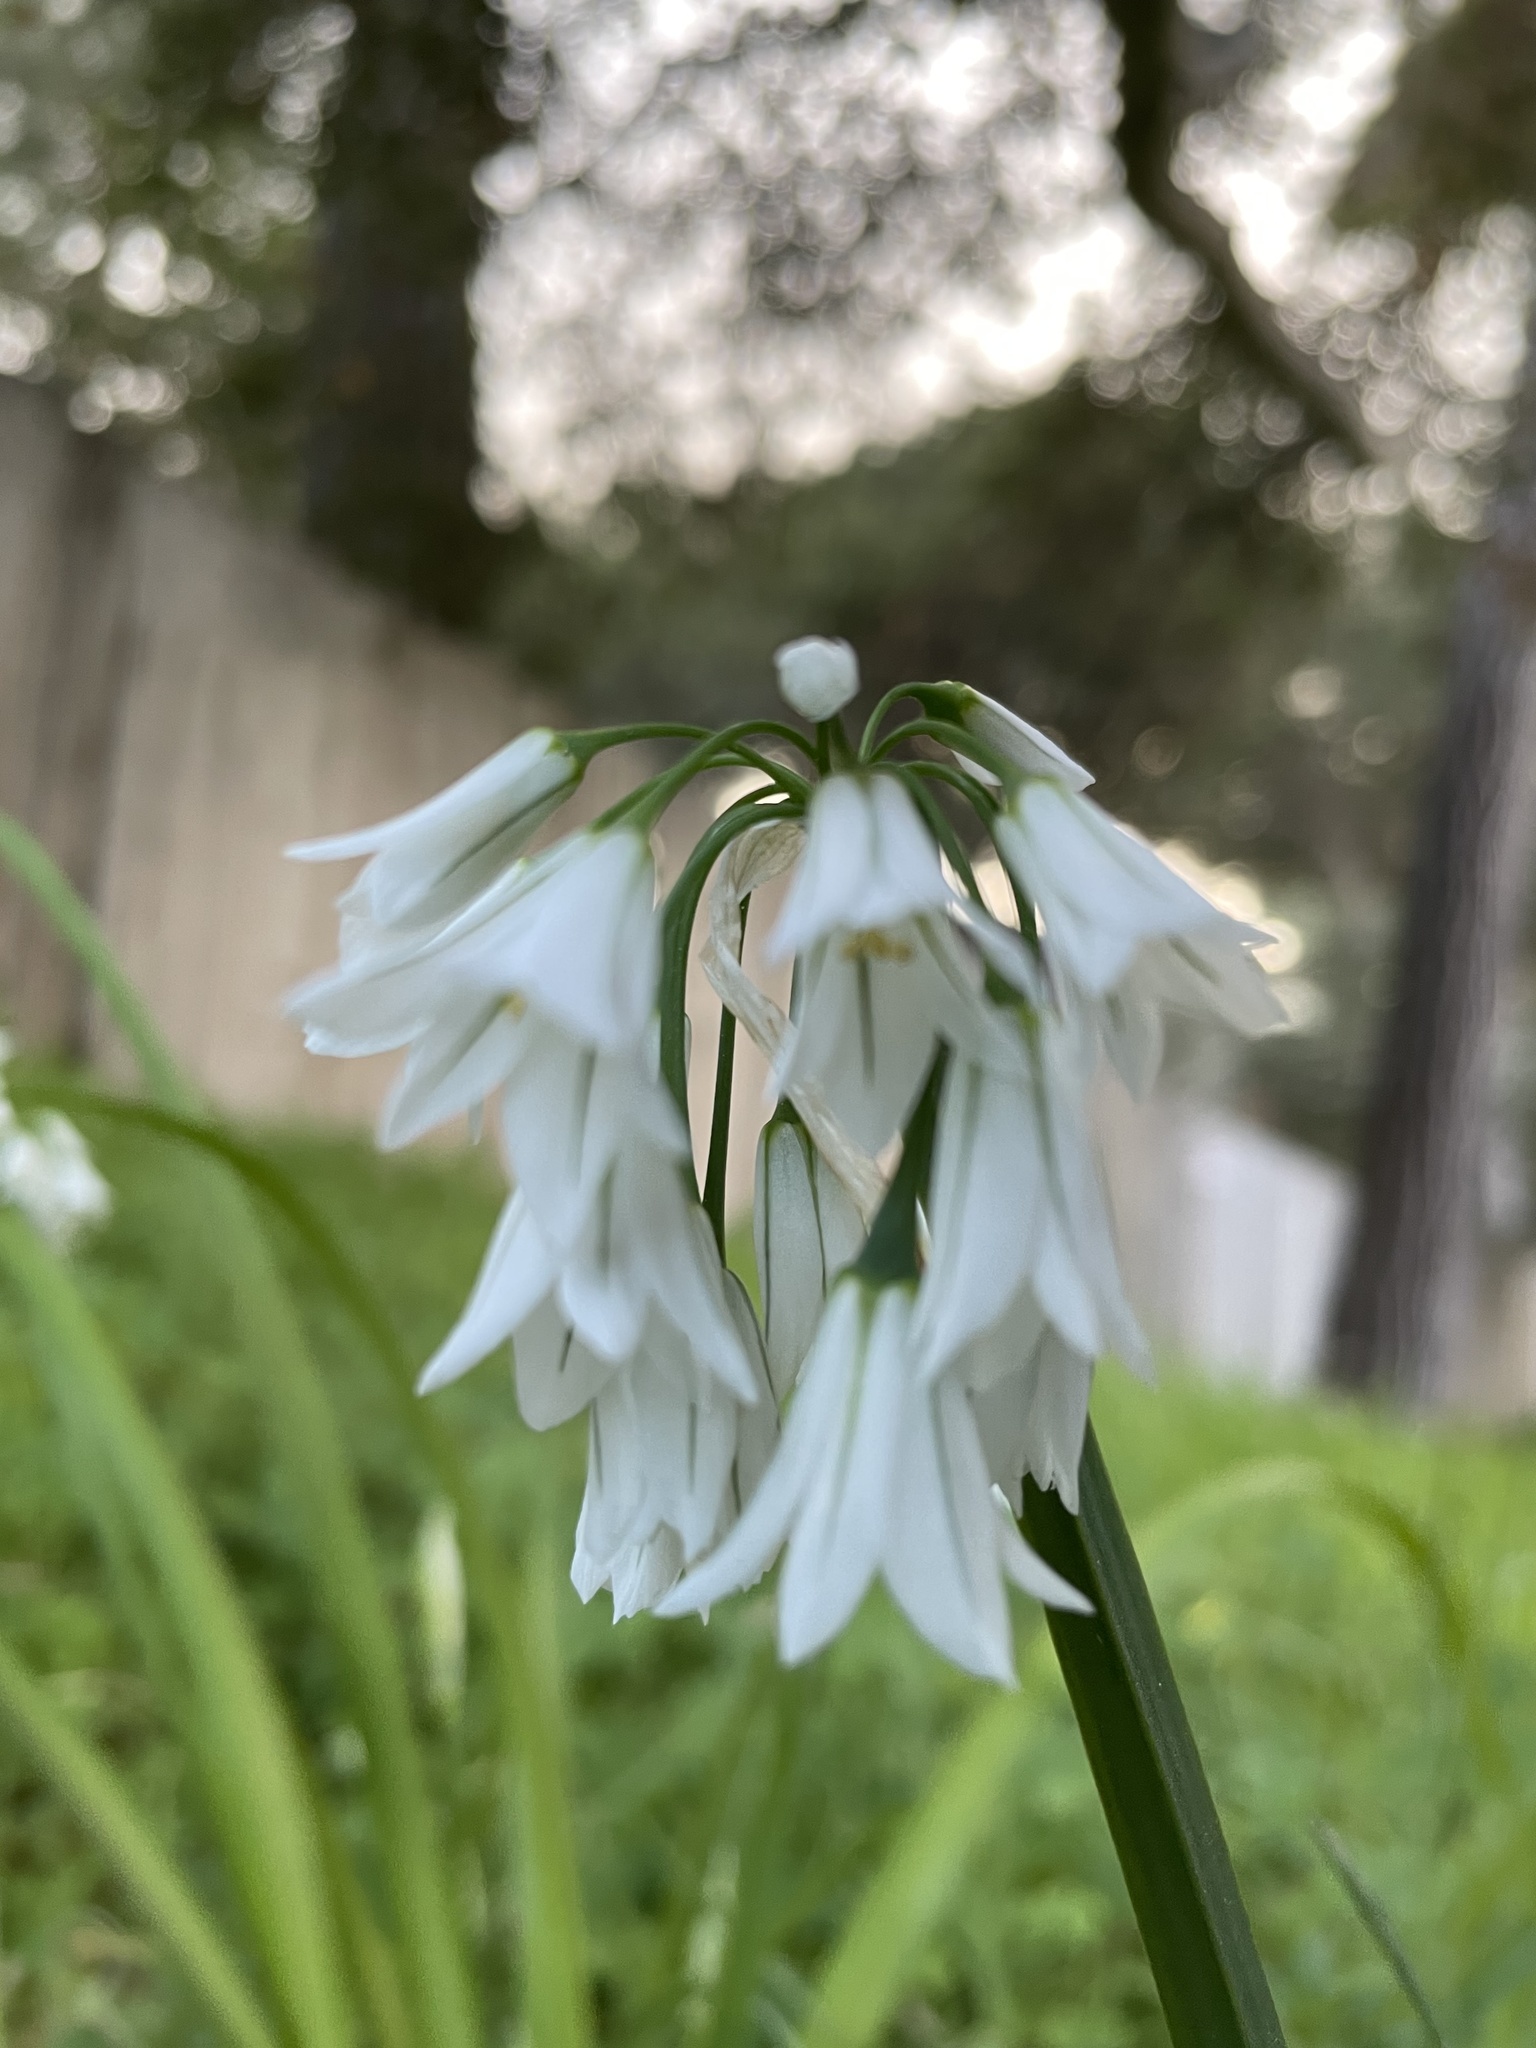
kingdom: Plantae
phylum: Tracheophyta
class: Liliopsida
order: Asparagales
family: Amaryllidaceae
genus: Allium
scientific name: Allium triquetrum
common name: Three-cornered garlic
